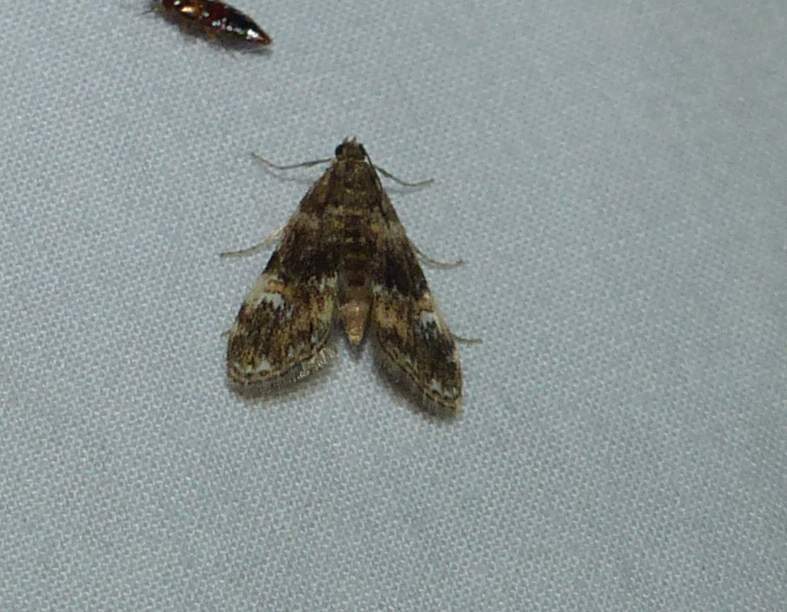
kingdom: Animalia
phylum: Arthropoda
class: Insecta
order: Lepidoptera
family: Crambidae
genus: Elophila
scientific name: Elophila obliteralis
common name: Waterlily leafcutter moth
